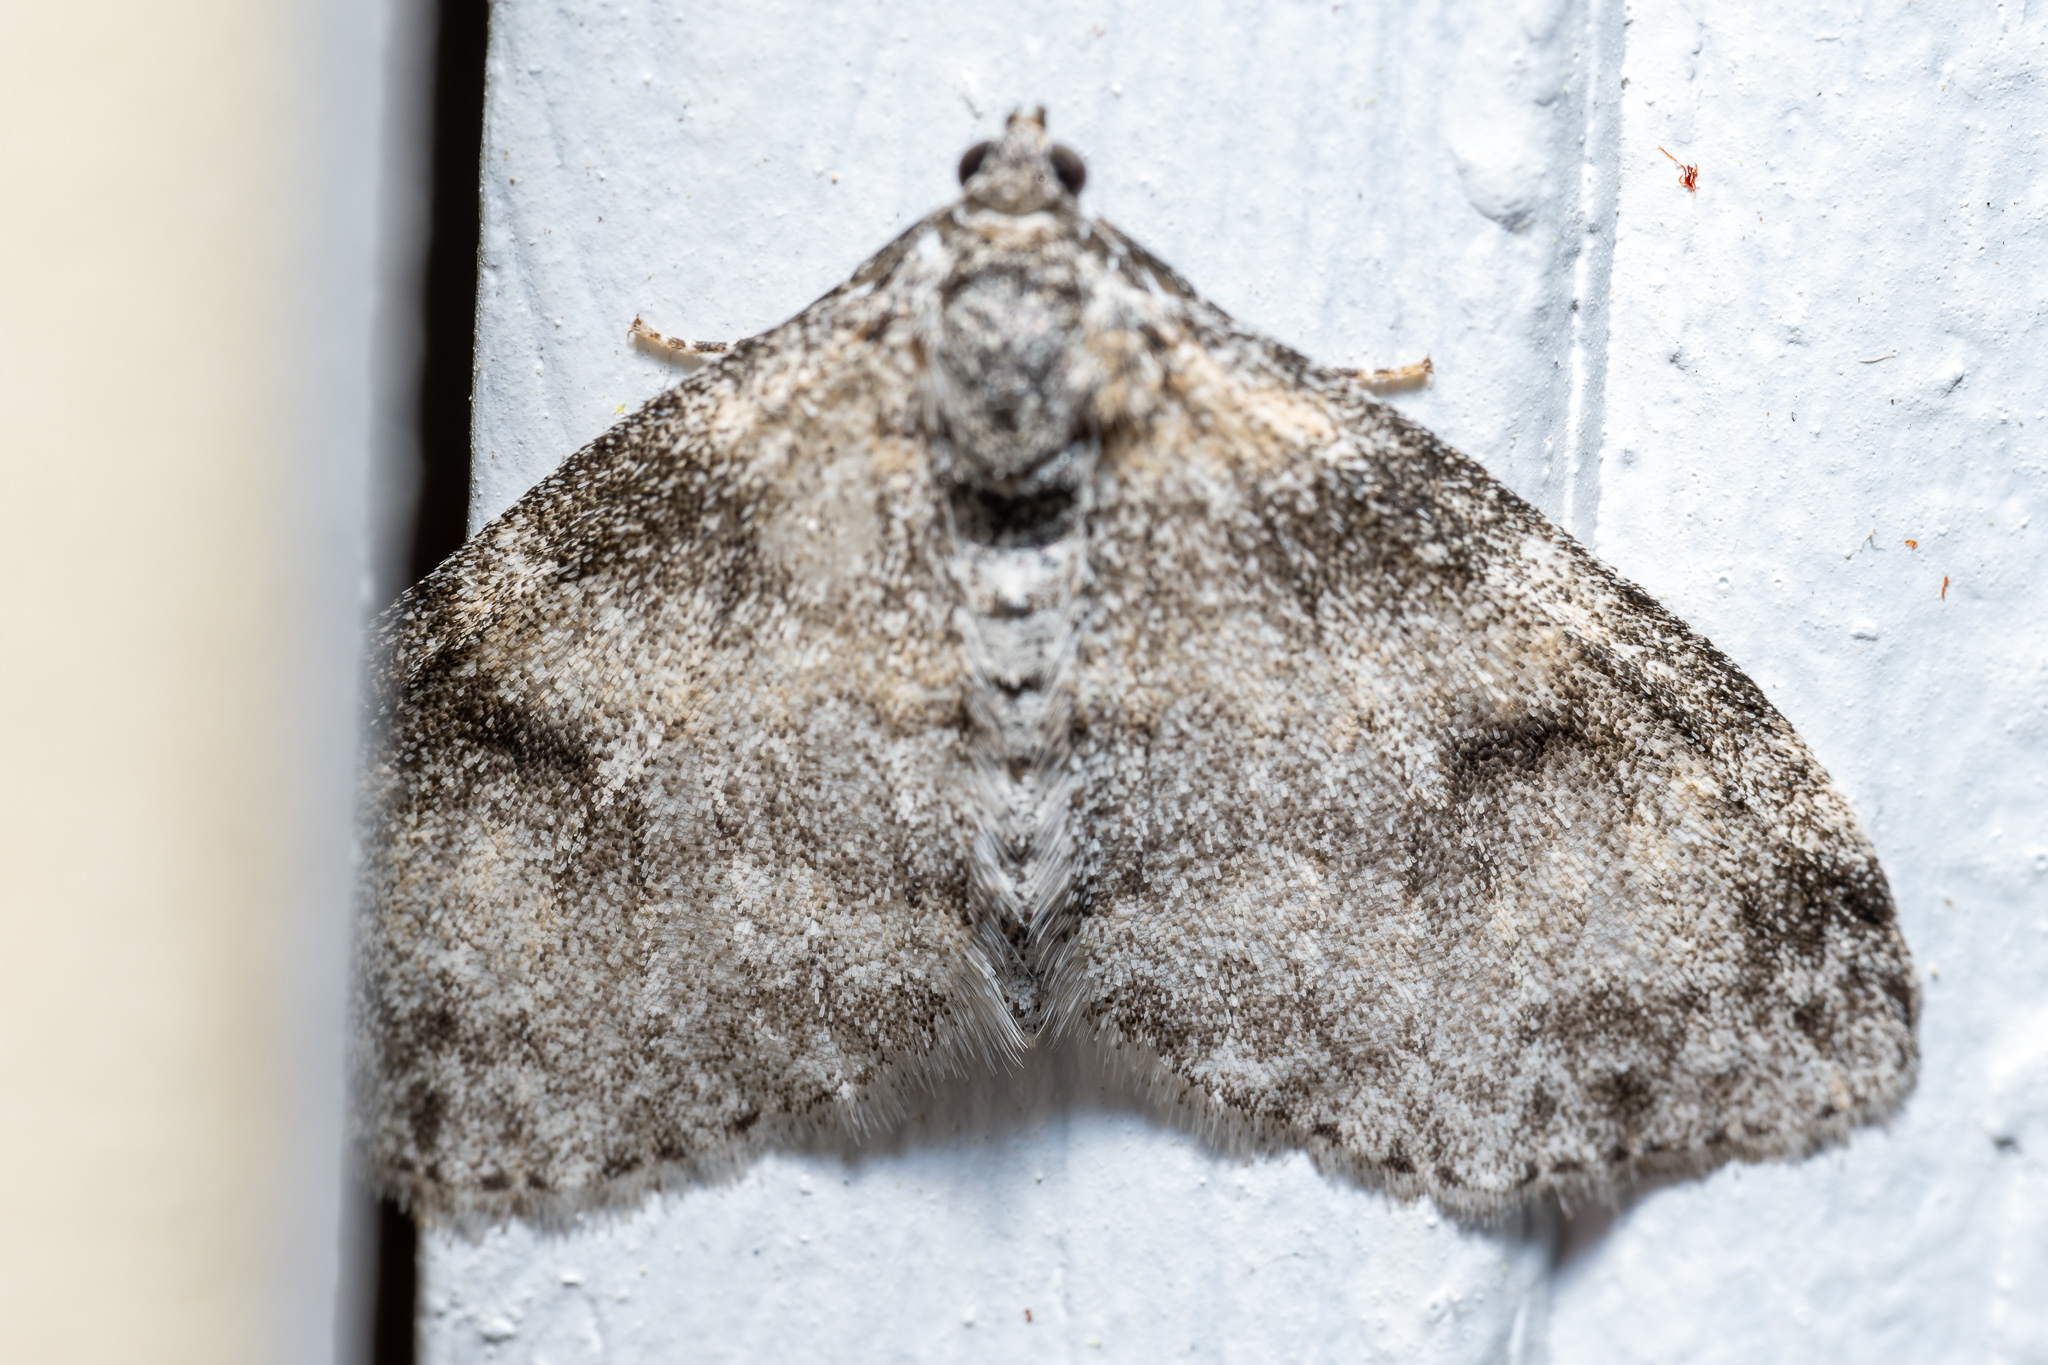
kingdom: Animalia
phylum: Arthropoda
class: Insecta
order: Lepidoptera
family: Geometridae
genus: Lobophora
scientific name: Lobophora nivigerata
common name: Powdered bigwing
